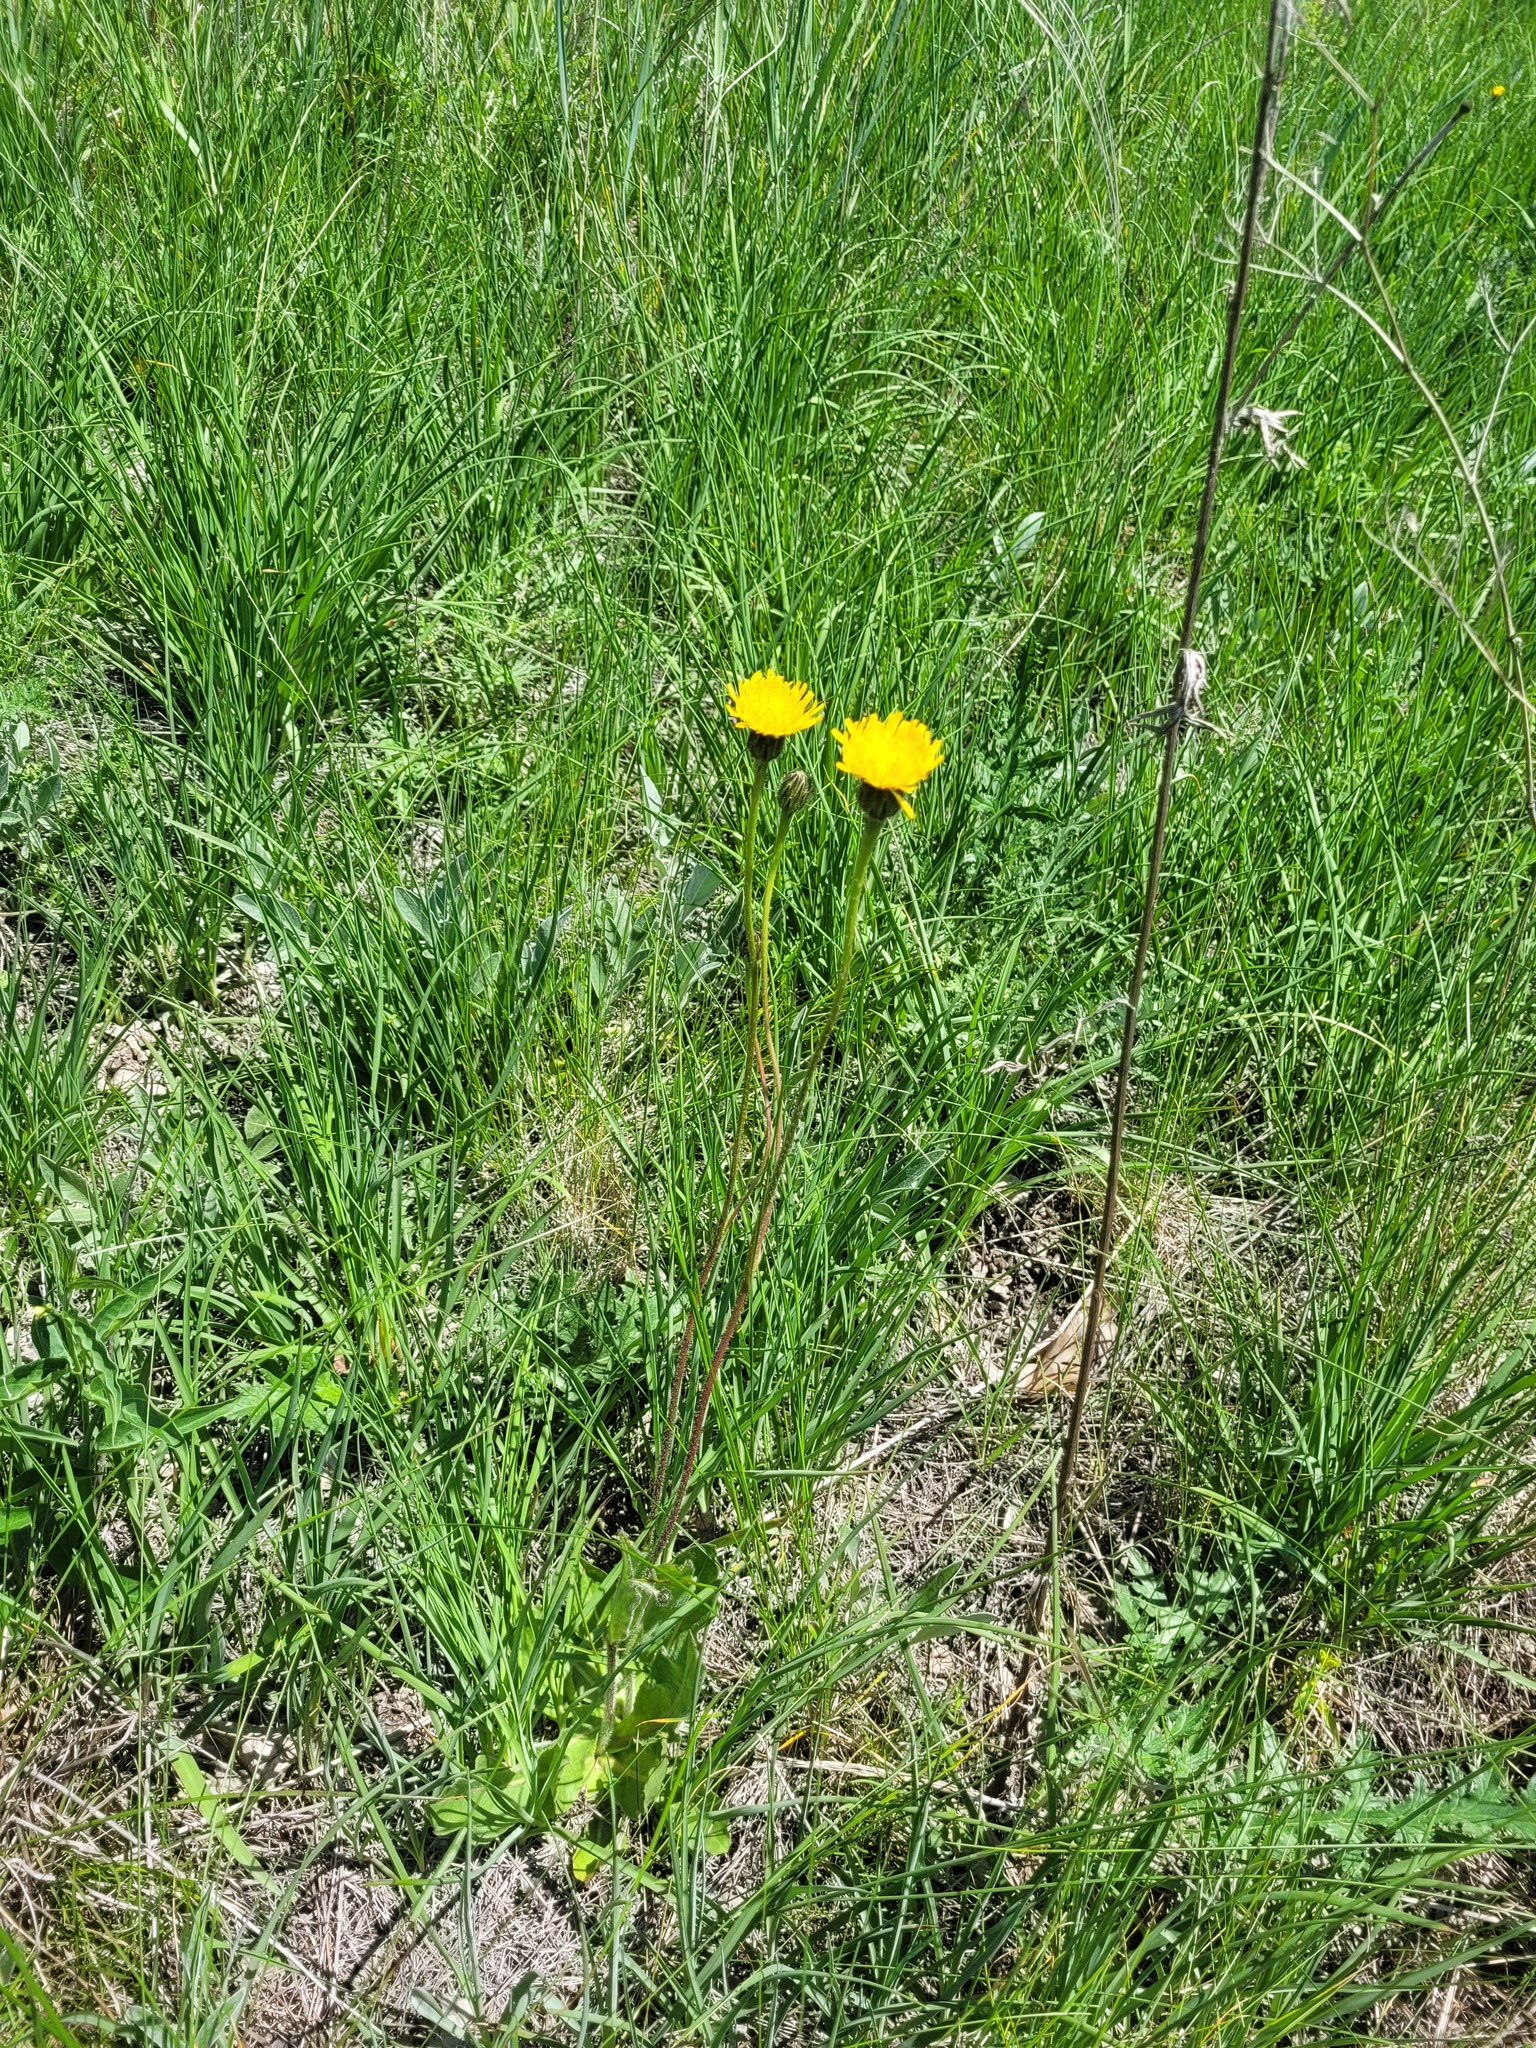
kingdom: Plantae
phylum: Tracheophyta
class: Magnoliopsida
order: Asterales
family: Asteraceae
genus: Trommsdorffia
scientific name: Trommsdorffia maculata
